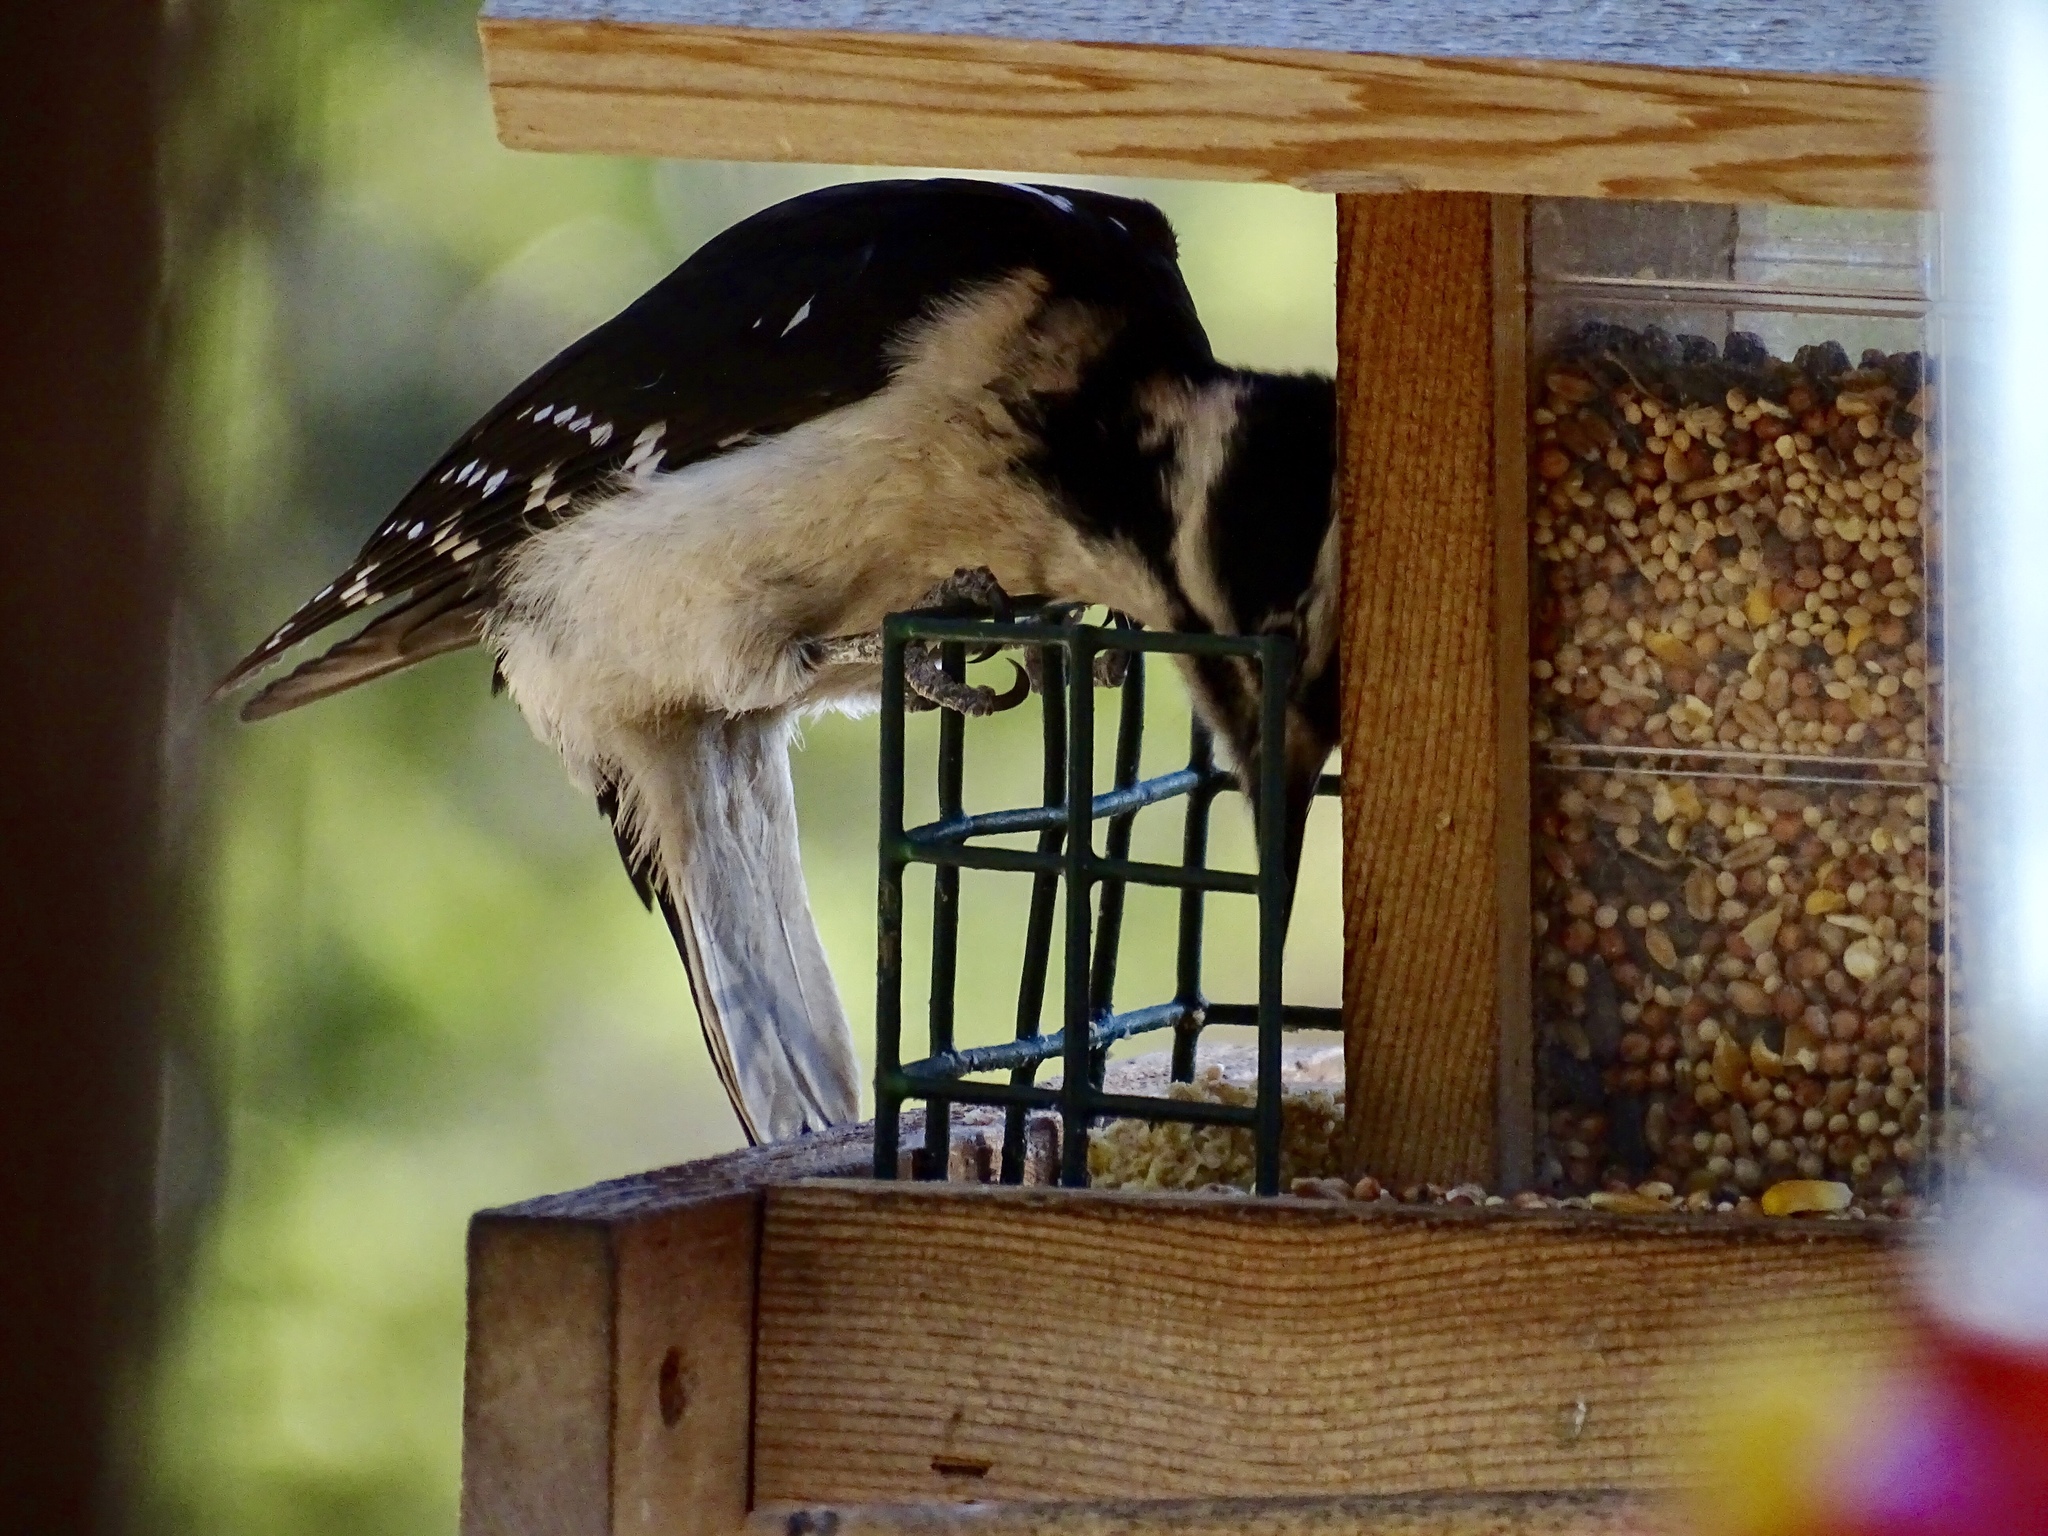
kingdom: Animalia
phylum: Chordata
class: Aves
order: Piciformes
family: Picidae
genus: Dryobates
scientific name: Dryobates pubescens
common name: Downy woodpecker
